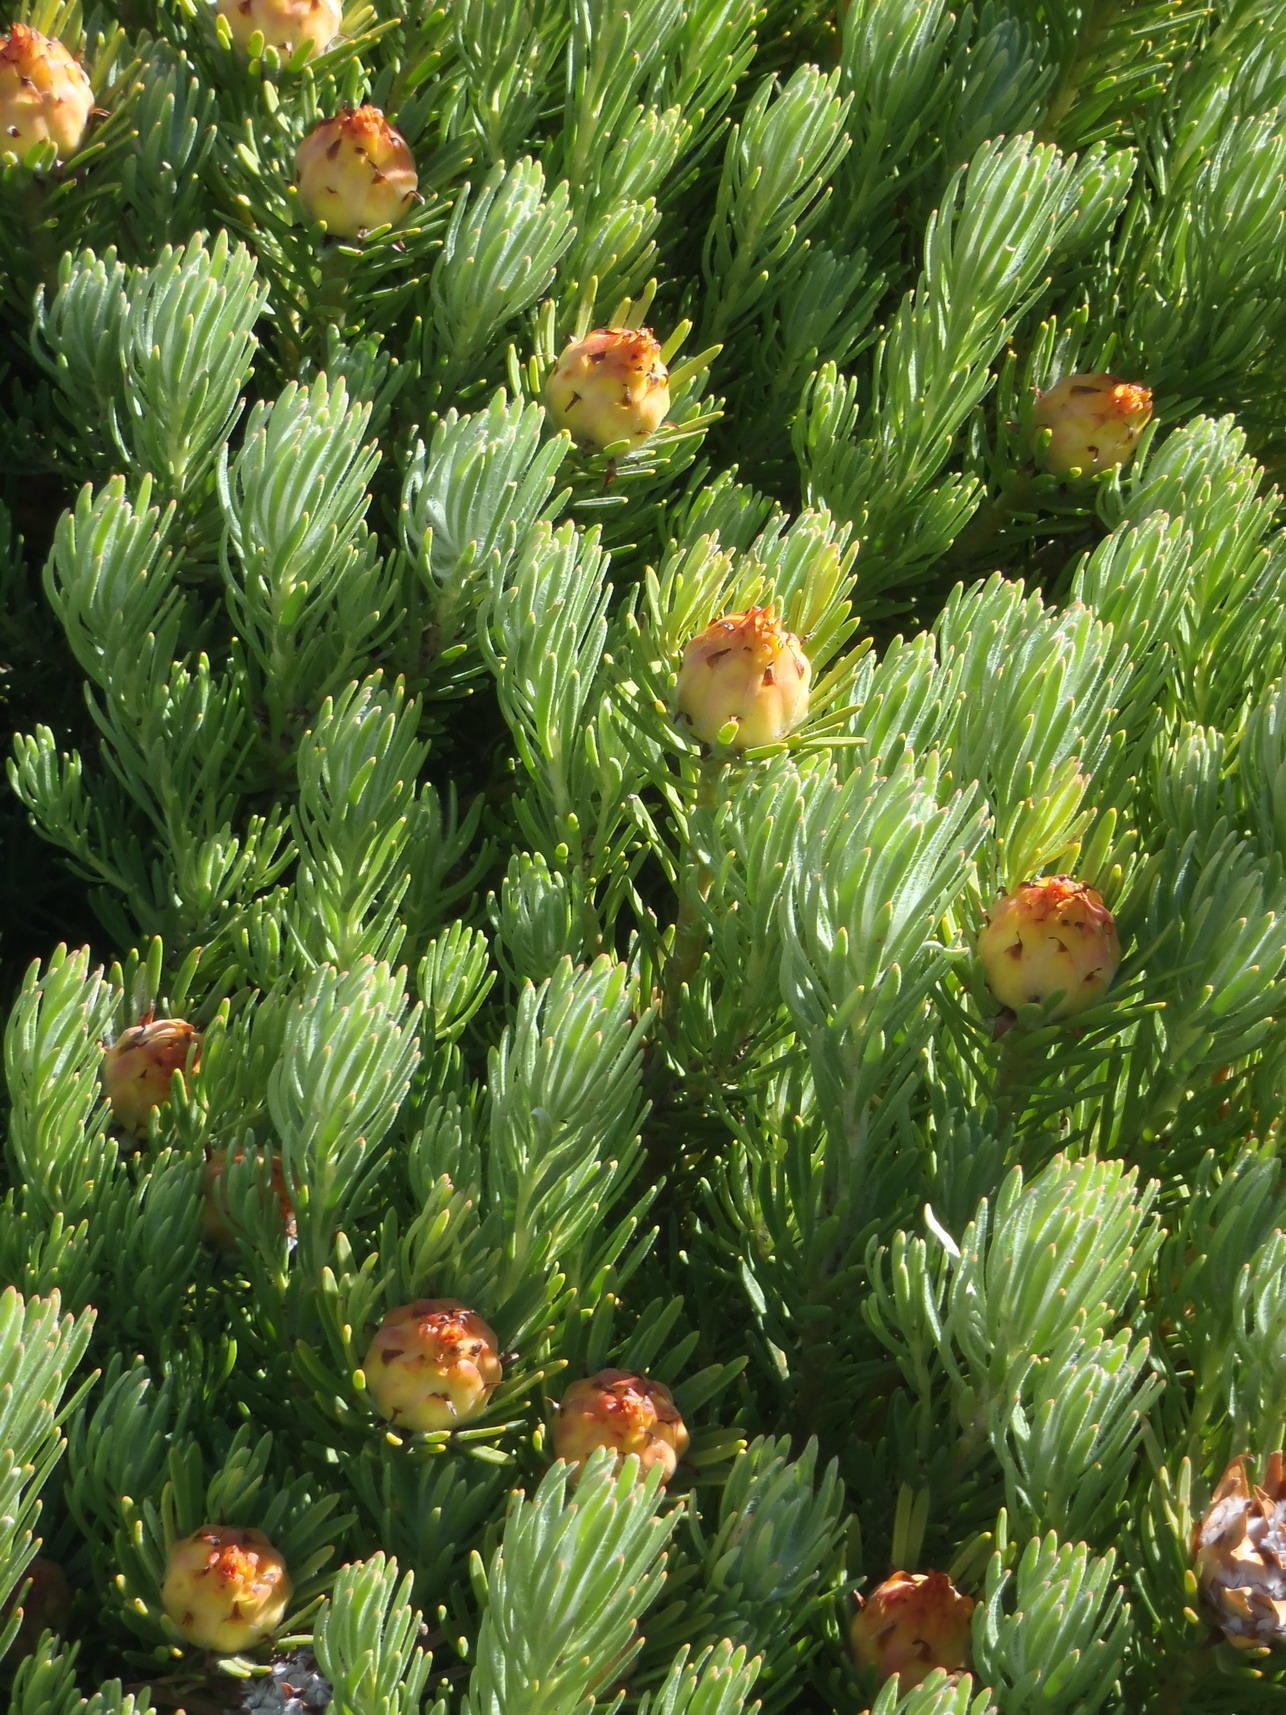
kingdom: Plantae
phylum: Tracheophyta
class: Magnoliopsida
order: Proteales
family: Proteaceae
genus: Leucadendron
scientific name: Leucadendron dregei
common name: Summit conebush
